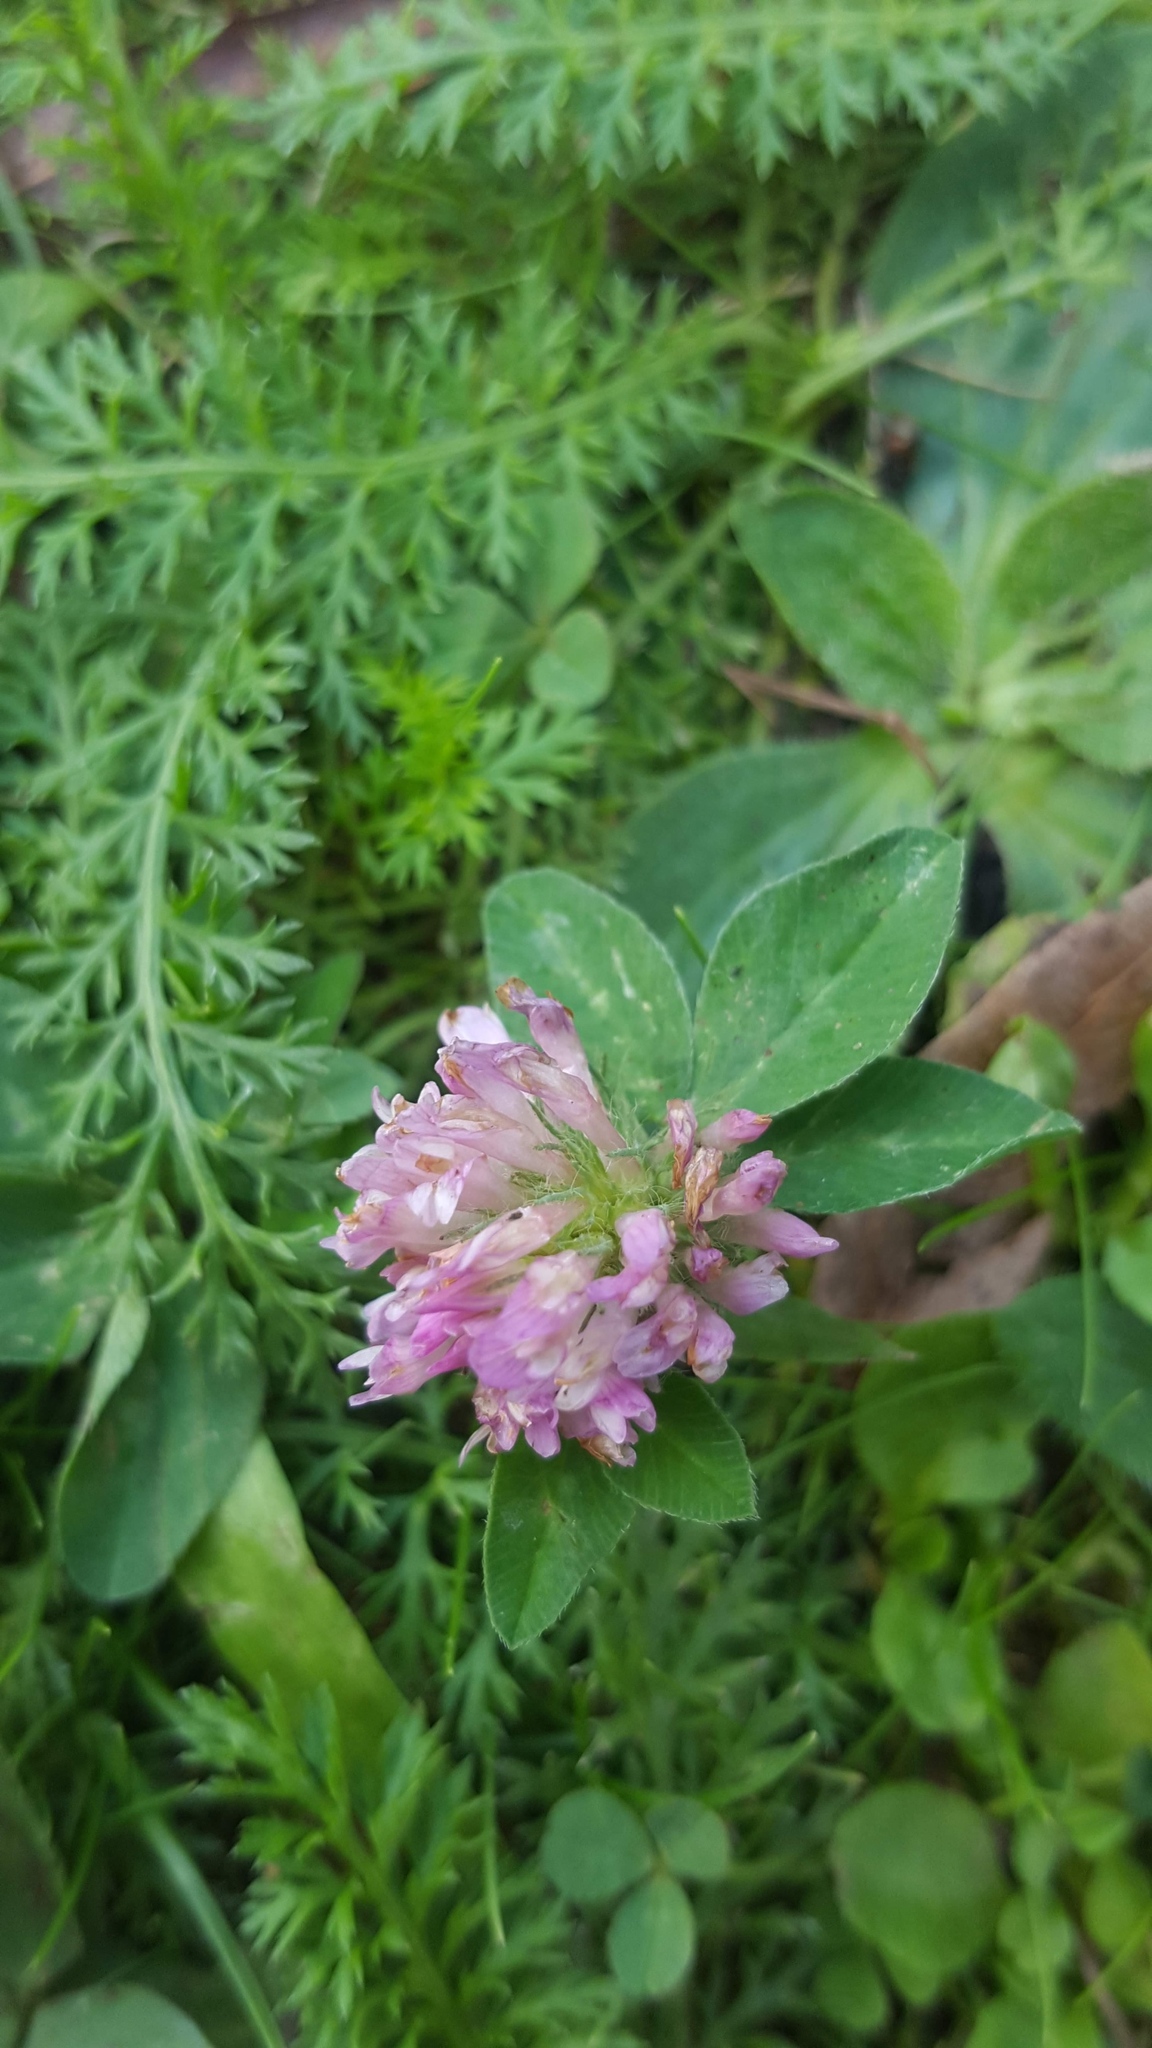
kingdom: Plantae
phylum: Tracheophyta
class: Magnoliopsida
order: Fabales
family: Fabaceae
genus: Trifolium
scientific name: Trifolium pratense
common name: Red clover
